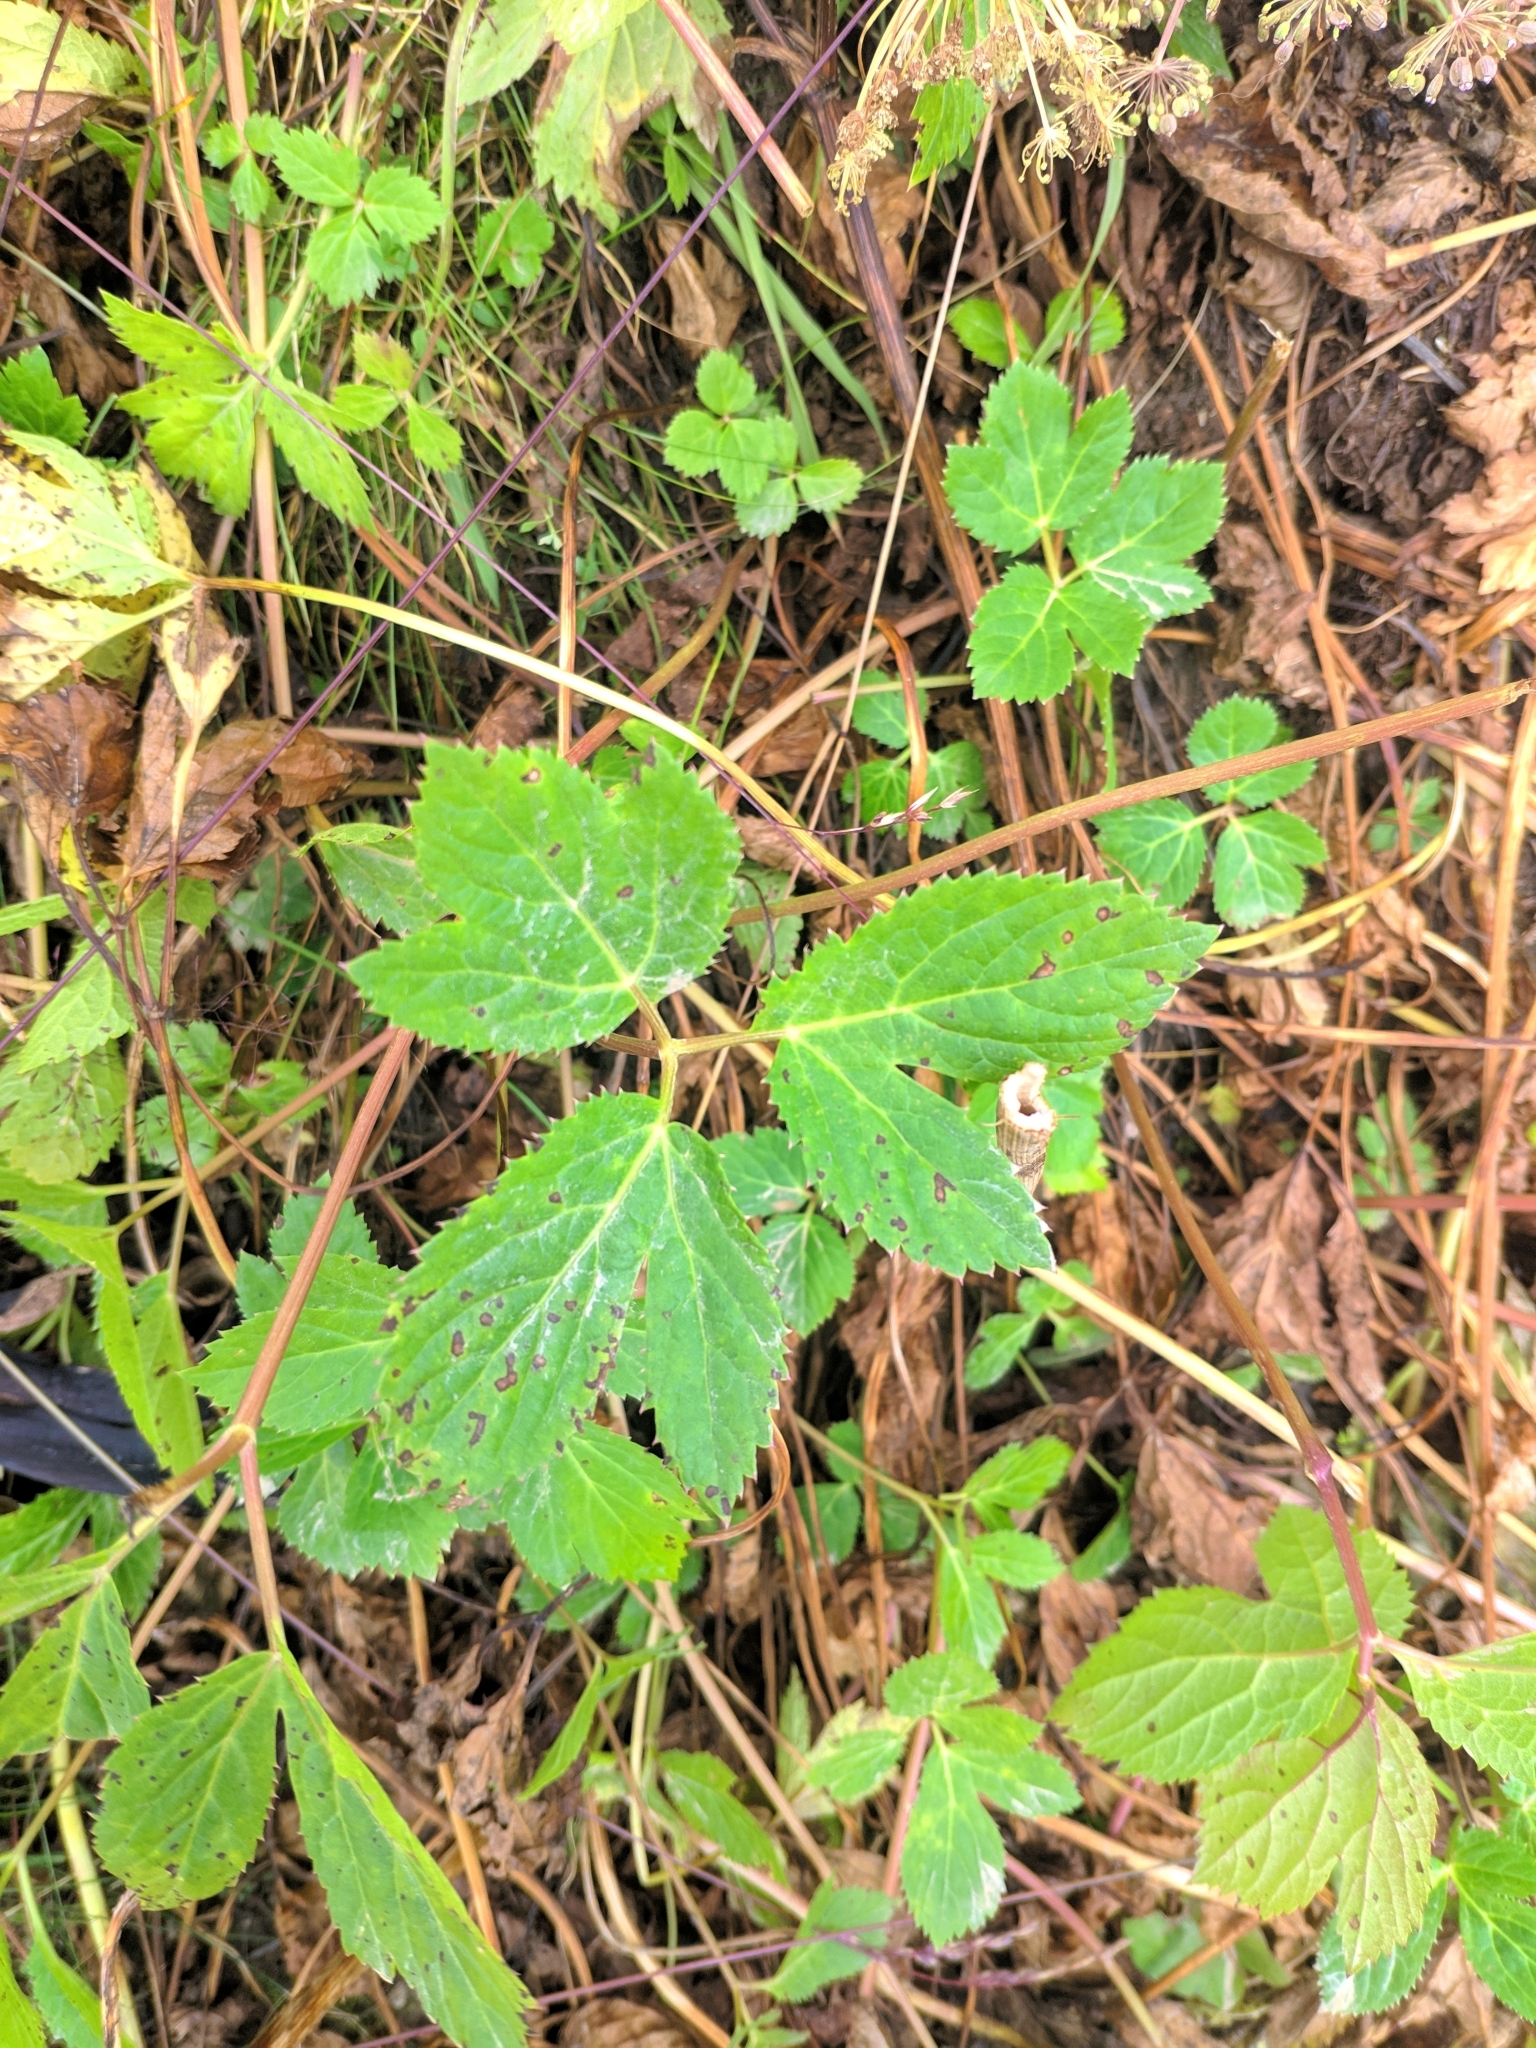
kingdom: Plantae
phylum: Tracheophyta
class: Magnoliopsida
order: Apiales
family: Apiaceae
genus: Imperatoria
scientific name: Imperatoria ostruthium
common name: Masterwort
